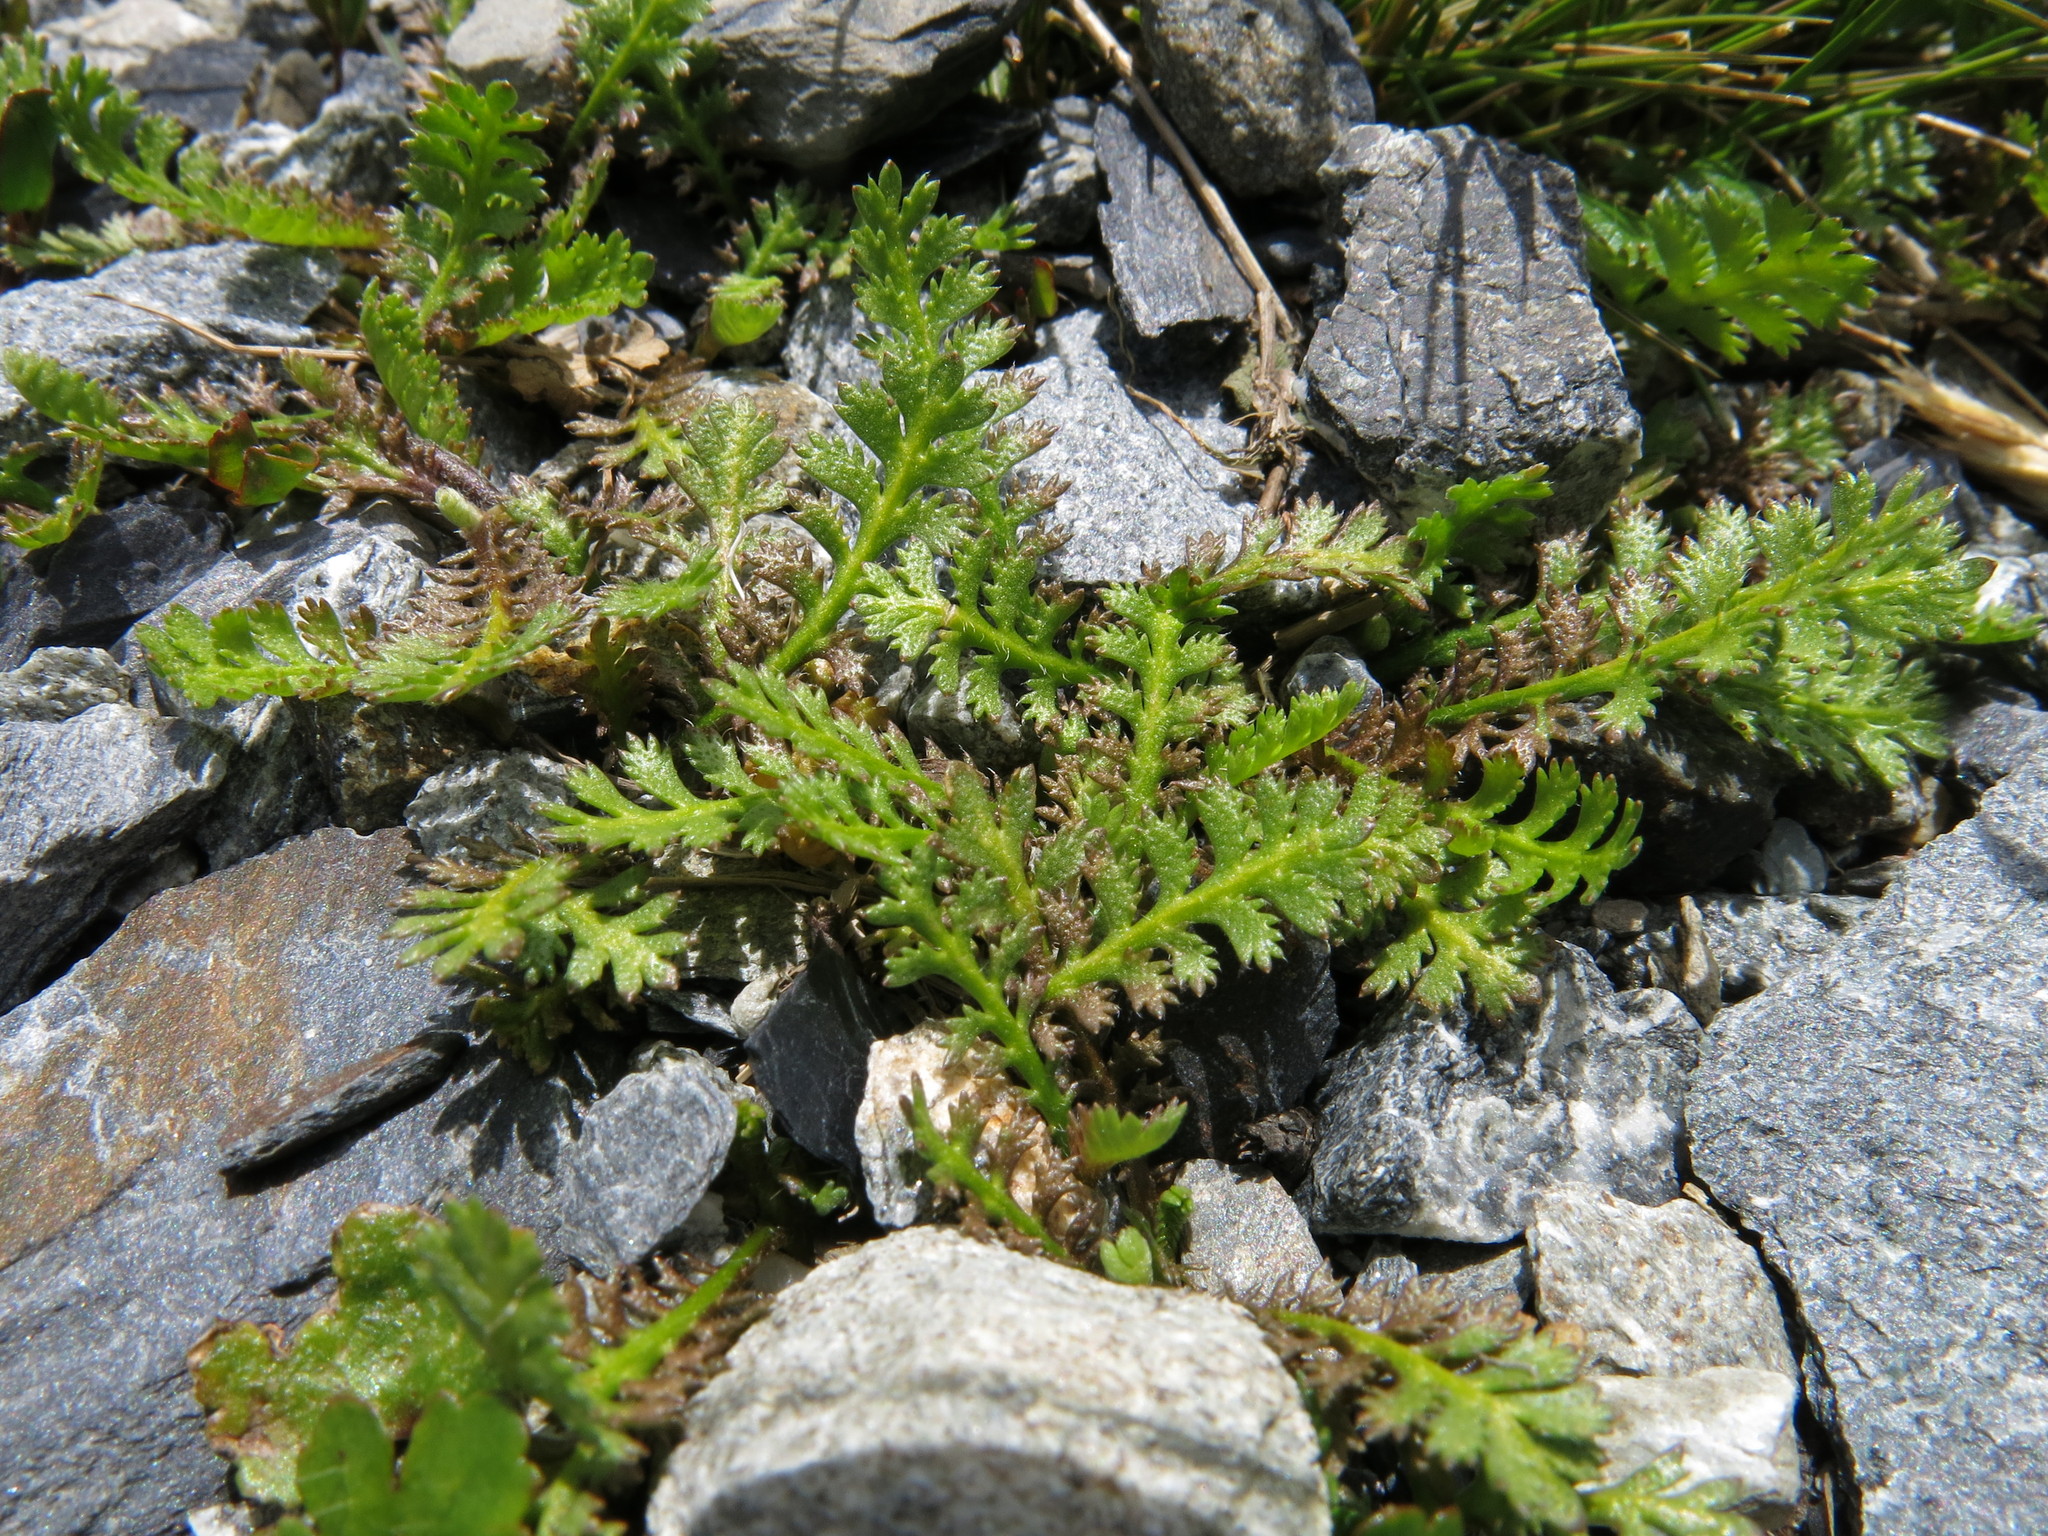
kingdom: Plantae
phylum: Tracheophyta
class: Magnoliopsida
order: Asterales
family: Asteraceae
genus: Leptinella
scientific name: Leptinella squalida
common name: New zealand brass-buttons
